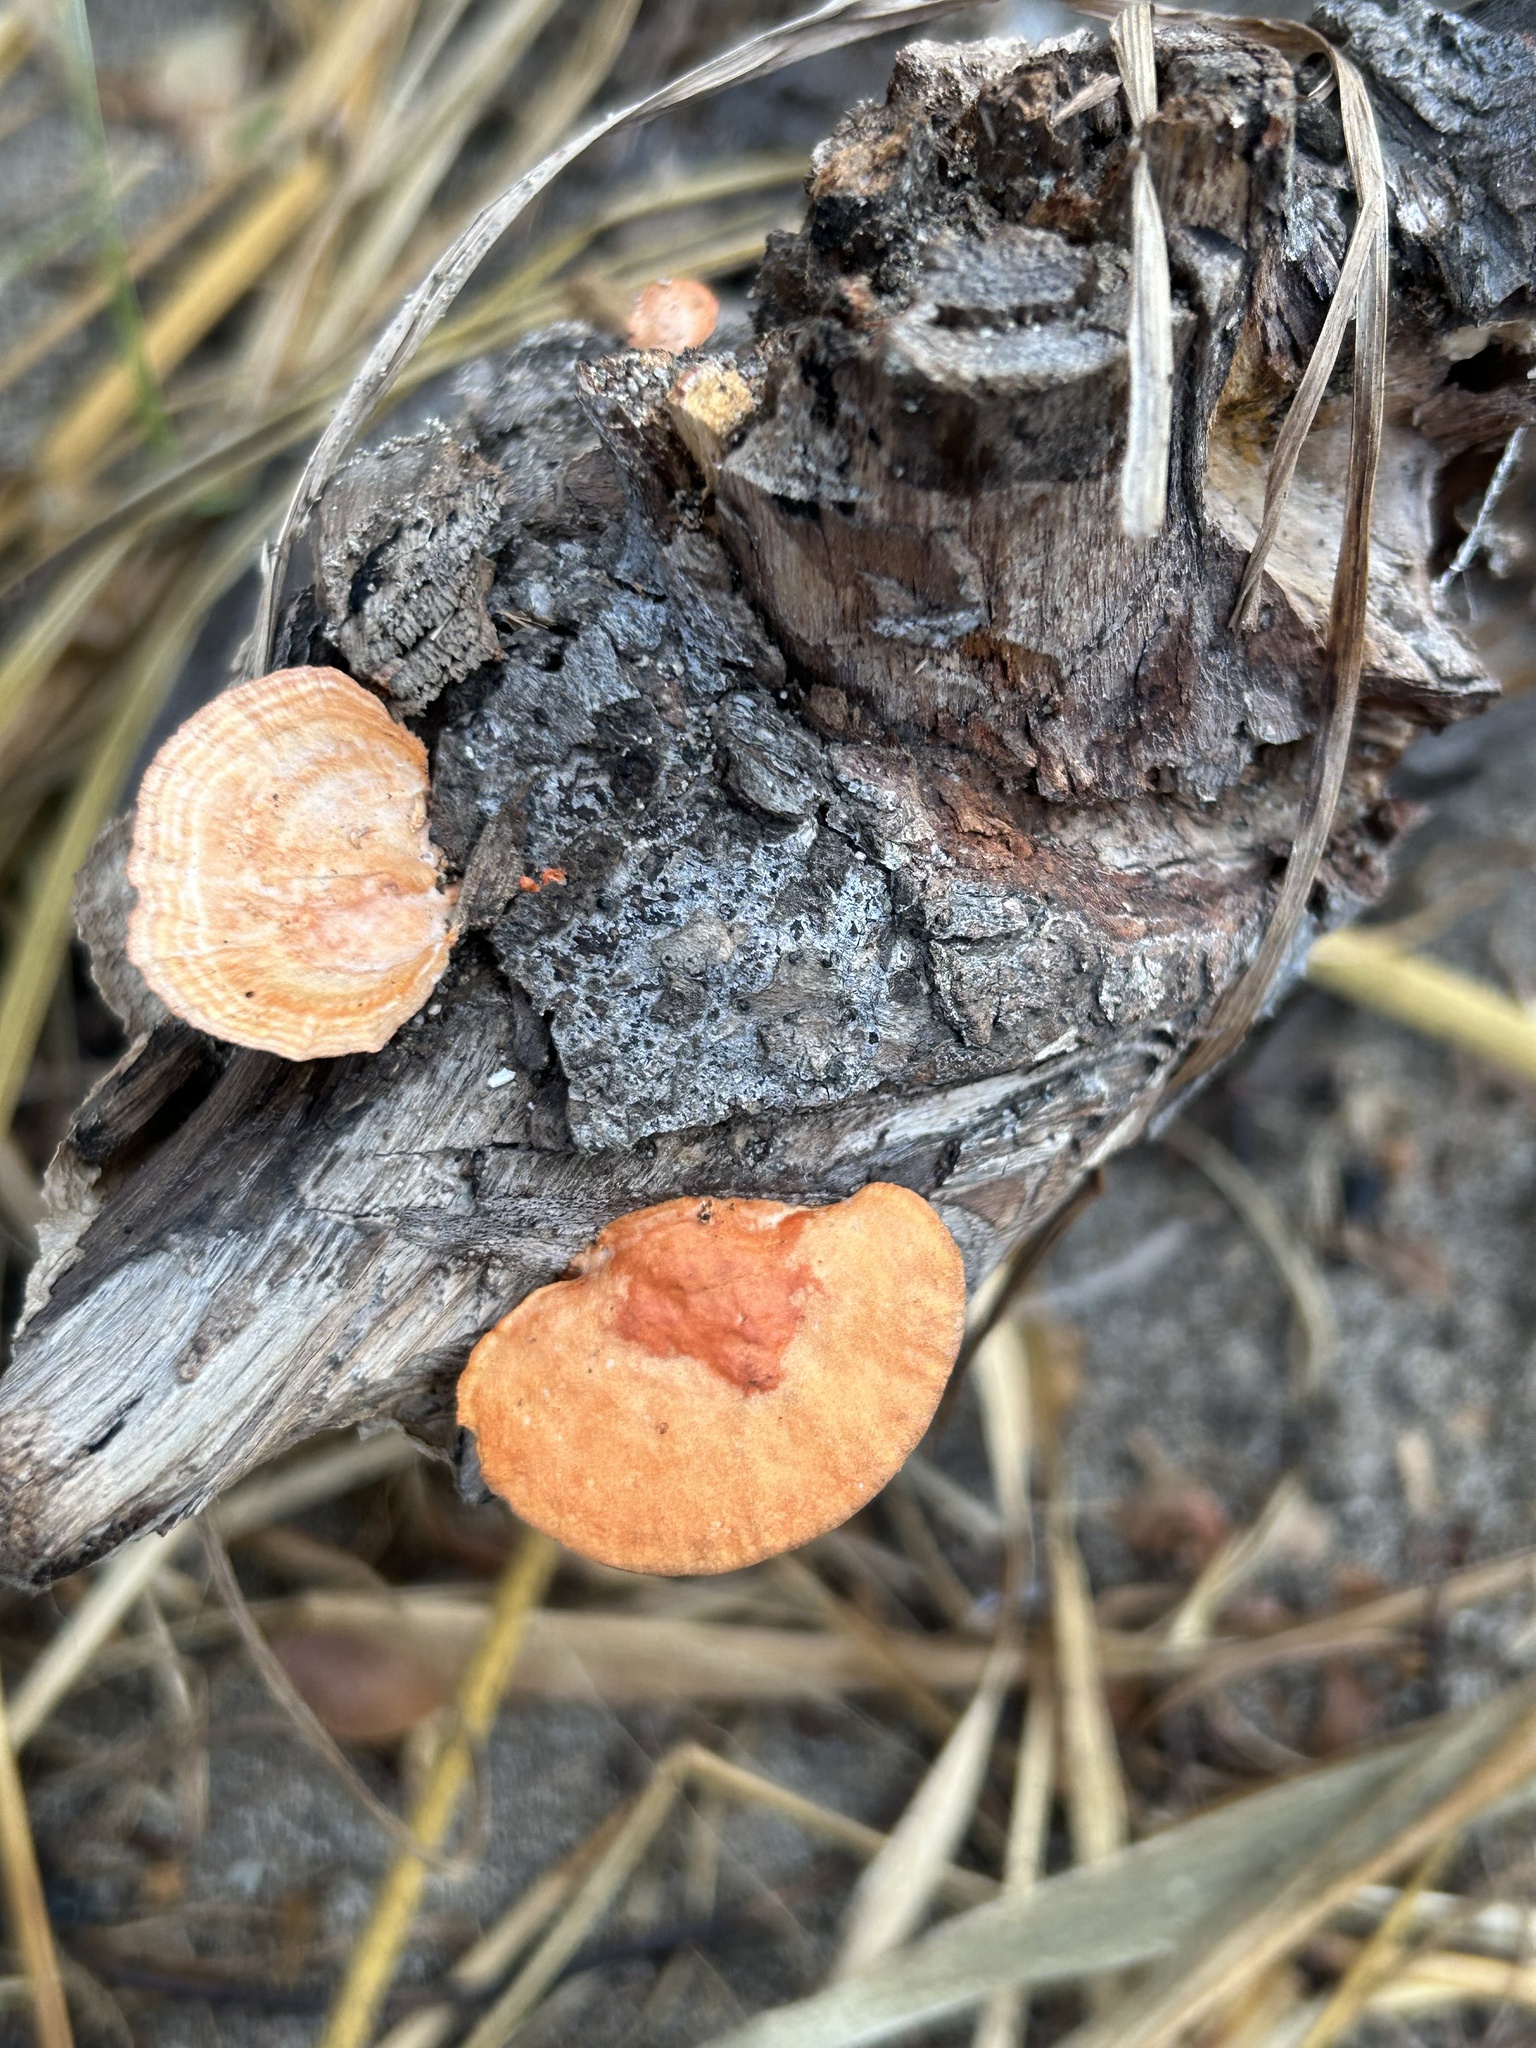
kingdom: Fungi
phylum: Basidiomycota
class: Agaricomycetes
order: Polyporales
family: Polyporaceae
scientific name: Polyporaceae
